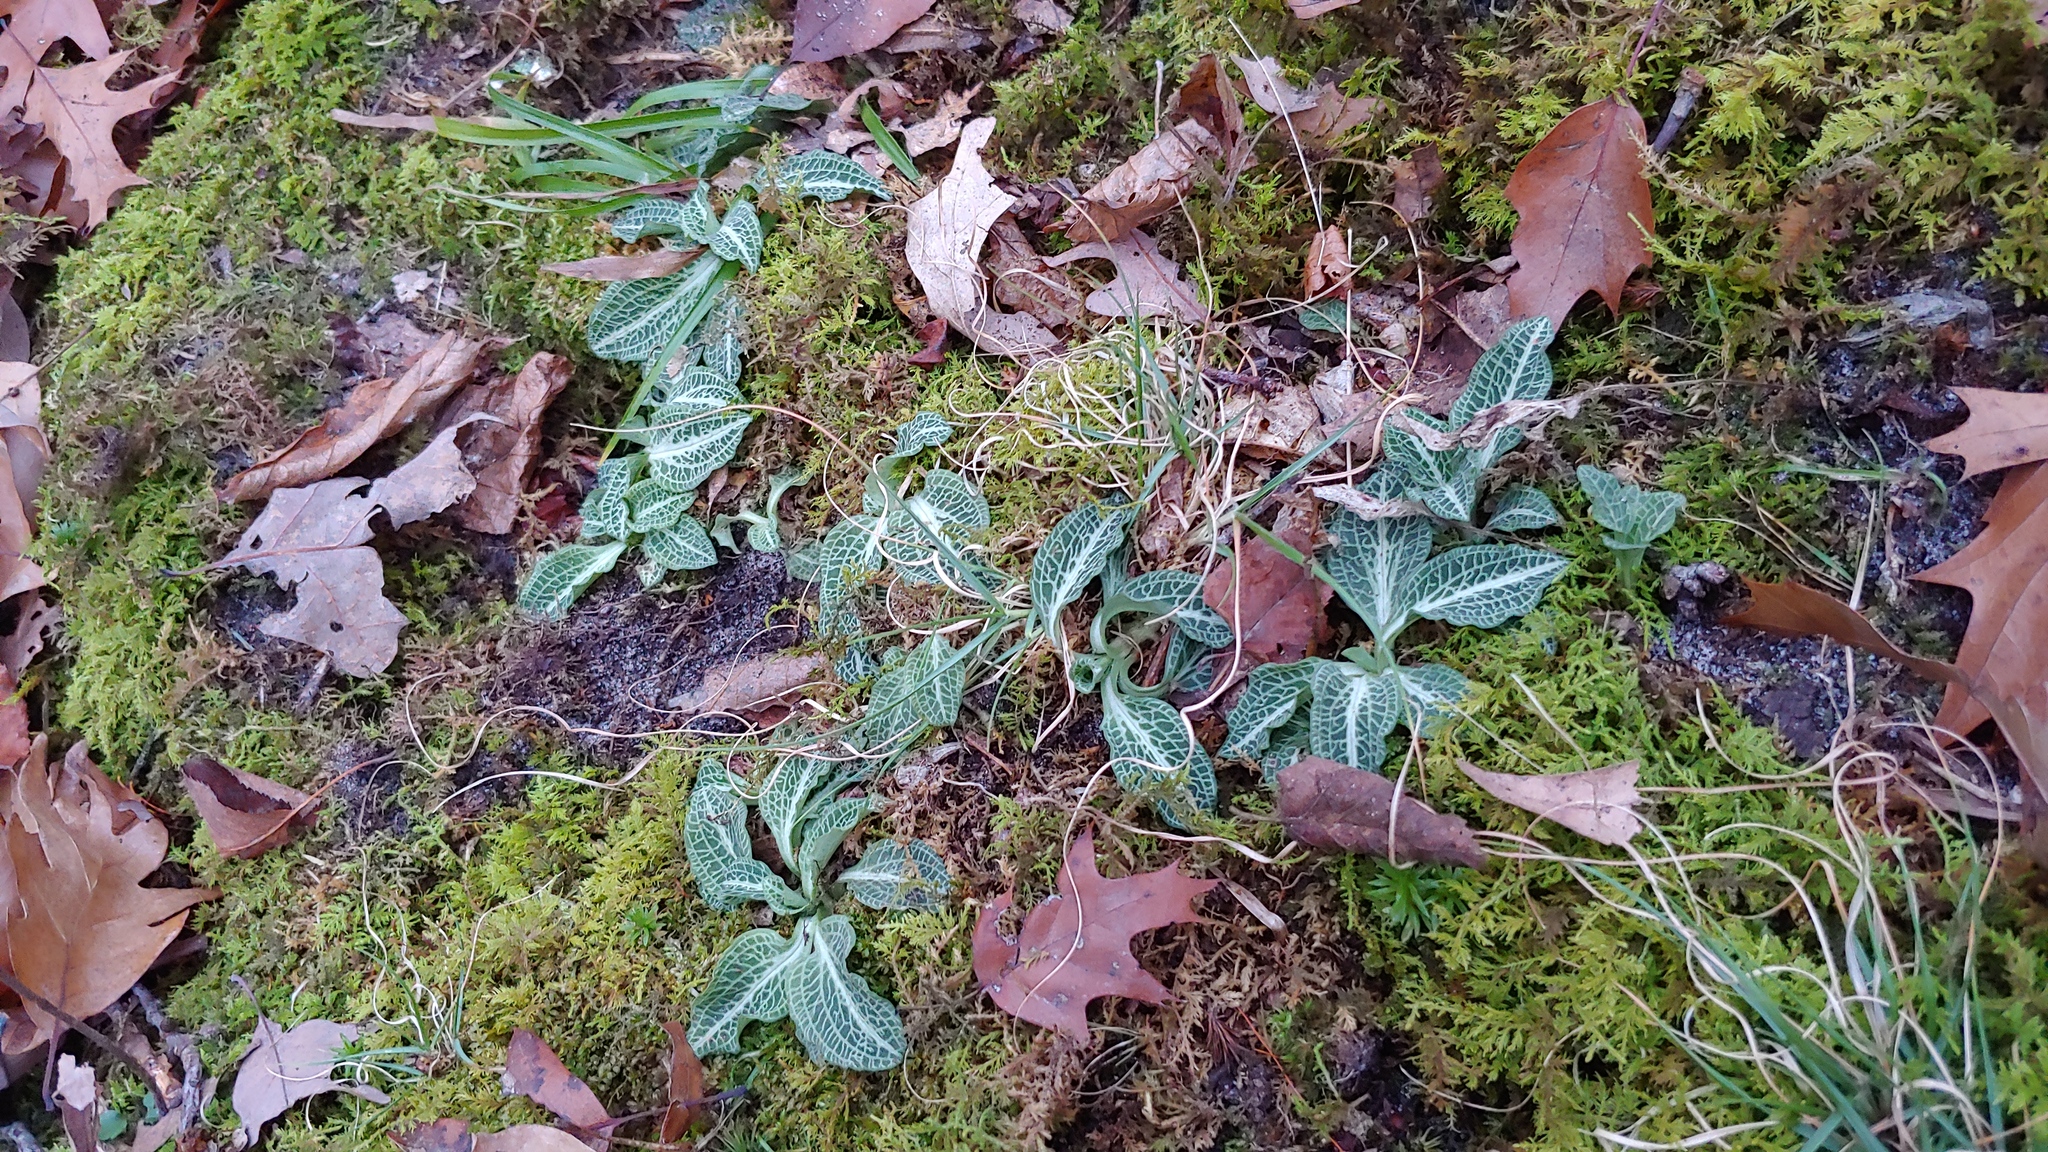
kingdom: Plantae
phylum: Tracheophyta
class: Liliopsida
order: Asparagales
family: Orchidaceae
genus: Goodyera
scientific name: Goodyera pubescens
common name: Downy rattlesnake-plantain
